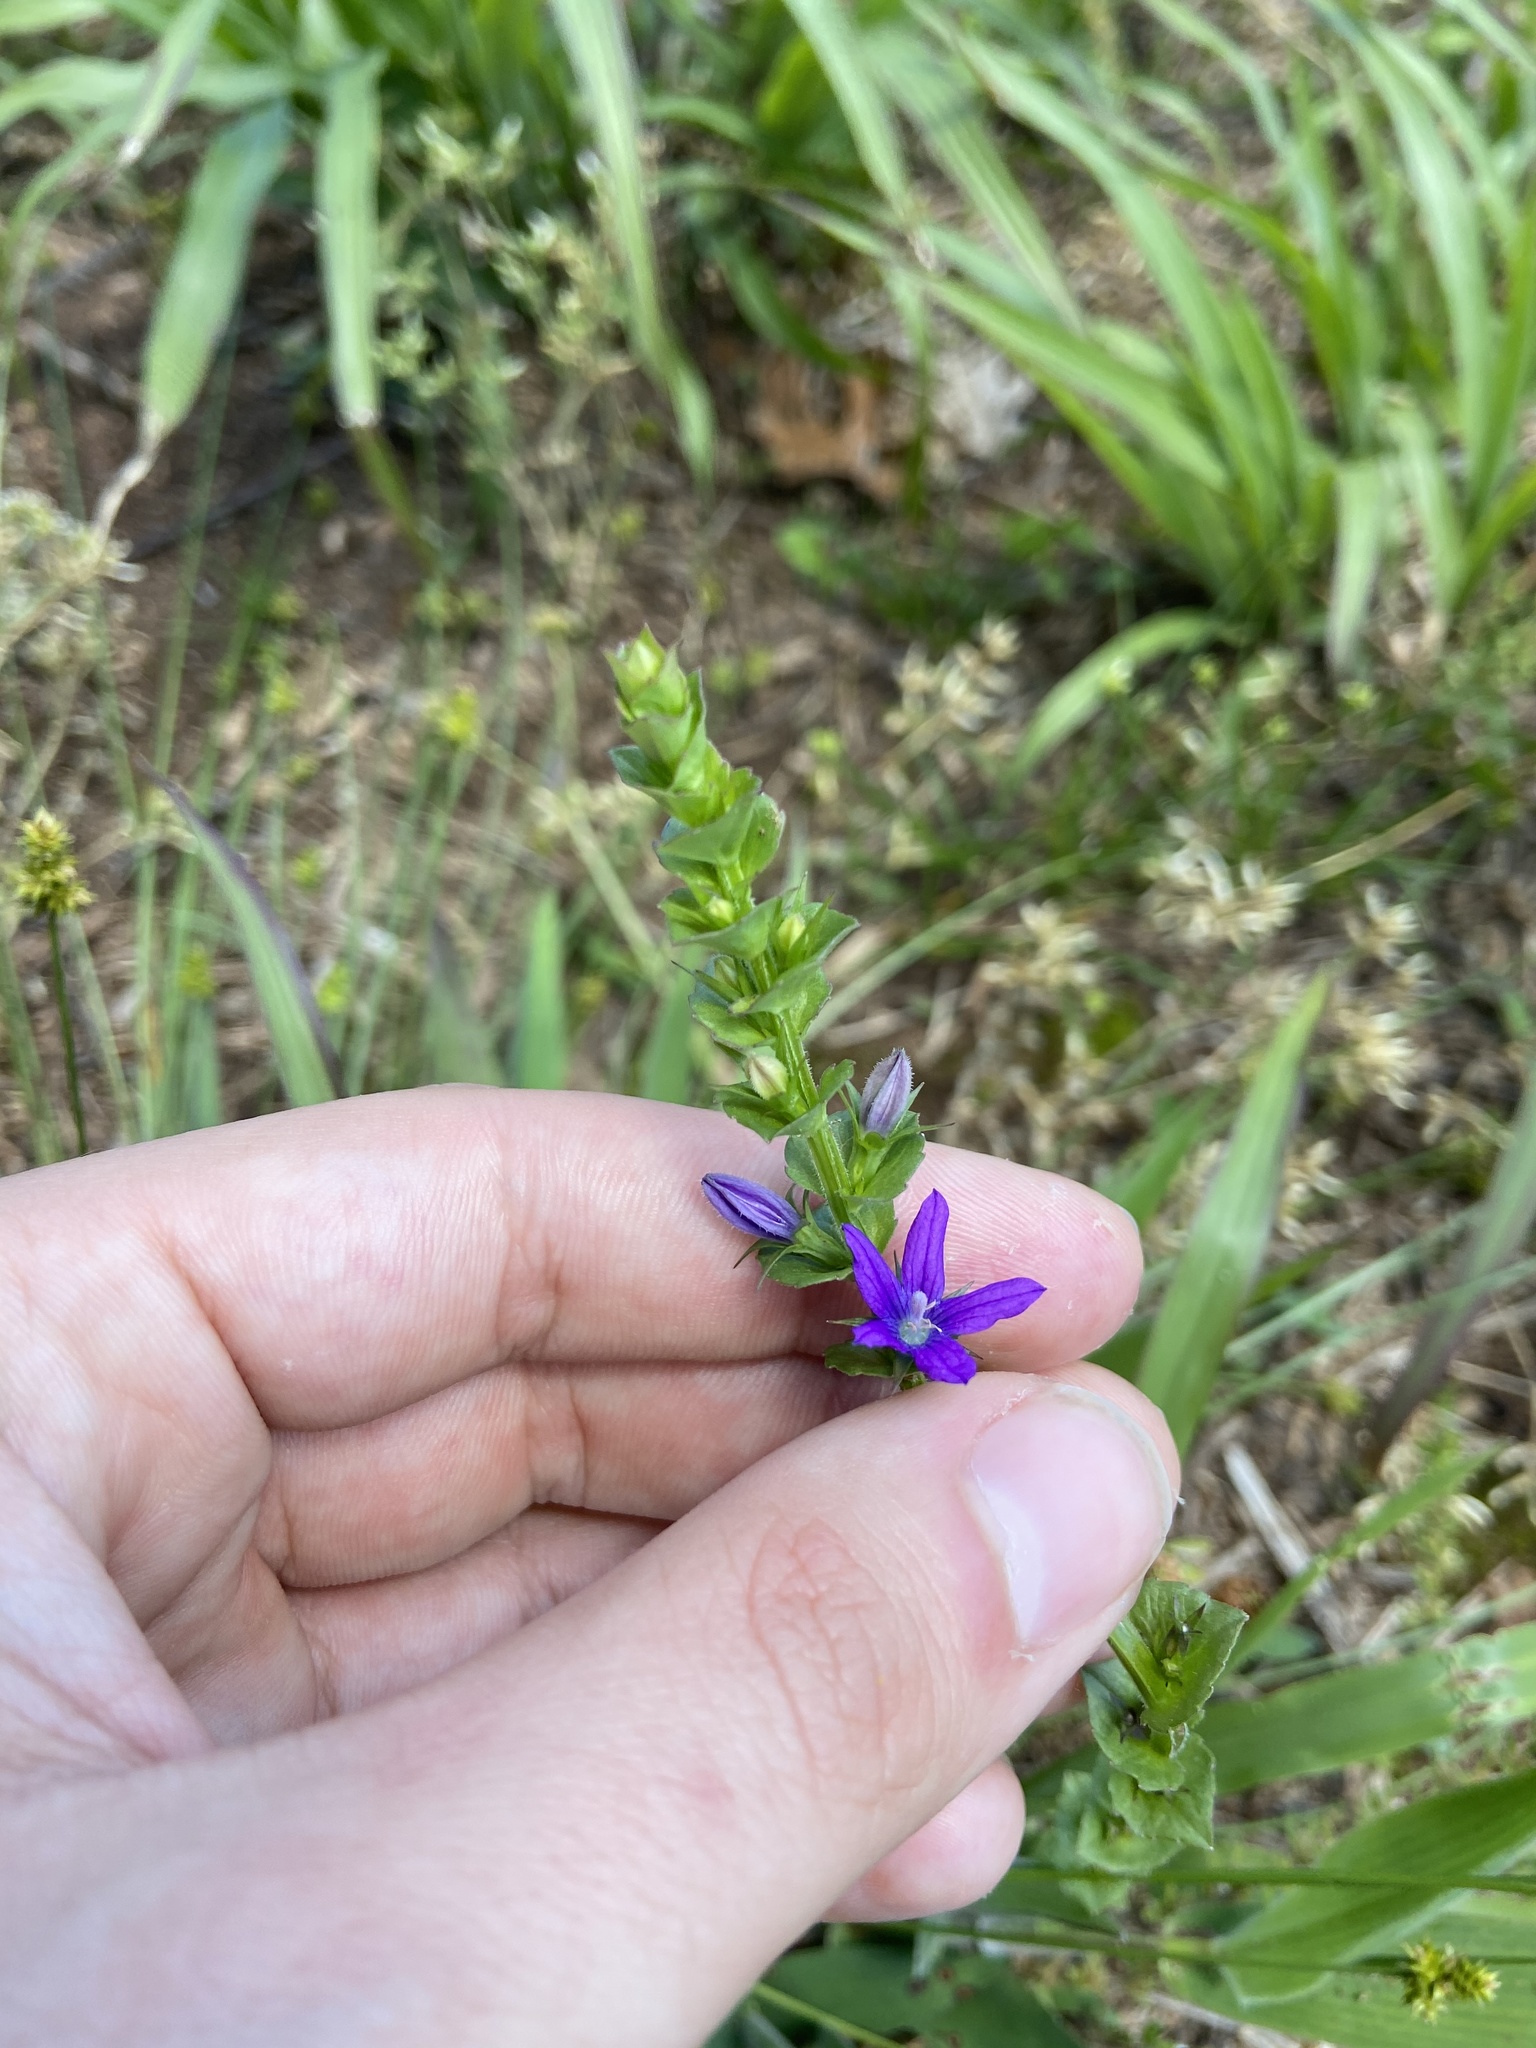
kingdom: Plantae
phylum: Tracheophyta
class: Magnoliopsida
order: Asterales
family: Campanulaceae
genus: Triodanis
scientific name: Triodanis perfoliata
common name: Clasping venus' looking-glass
